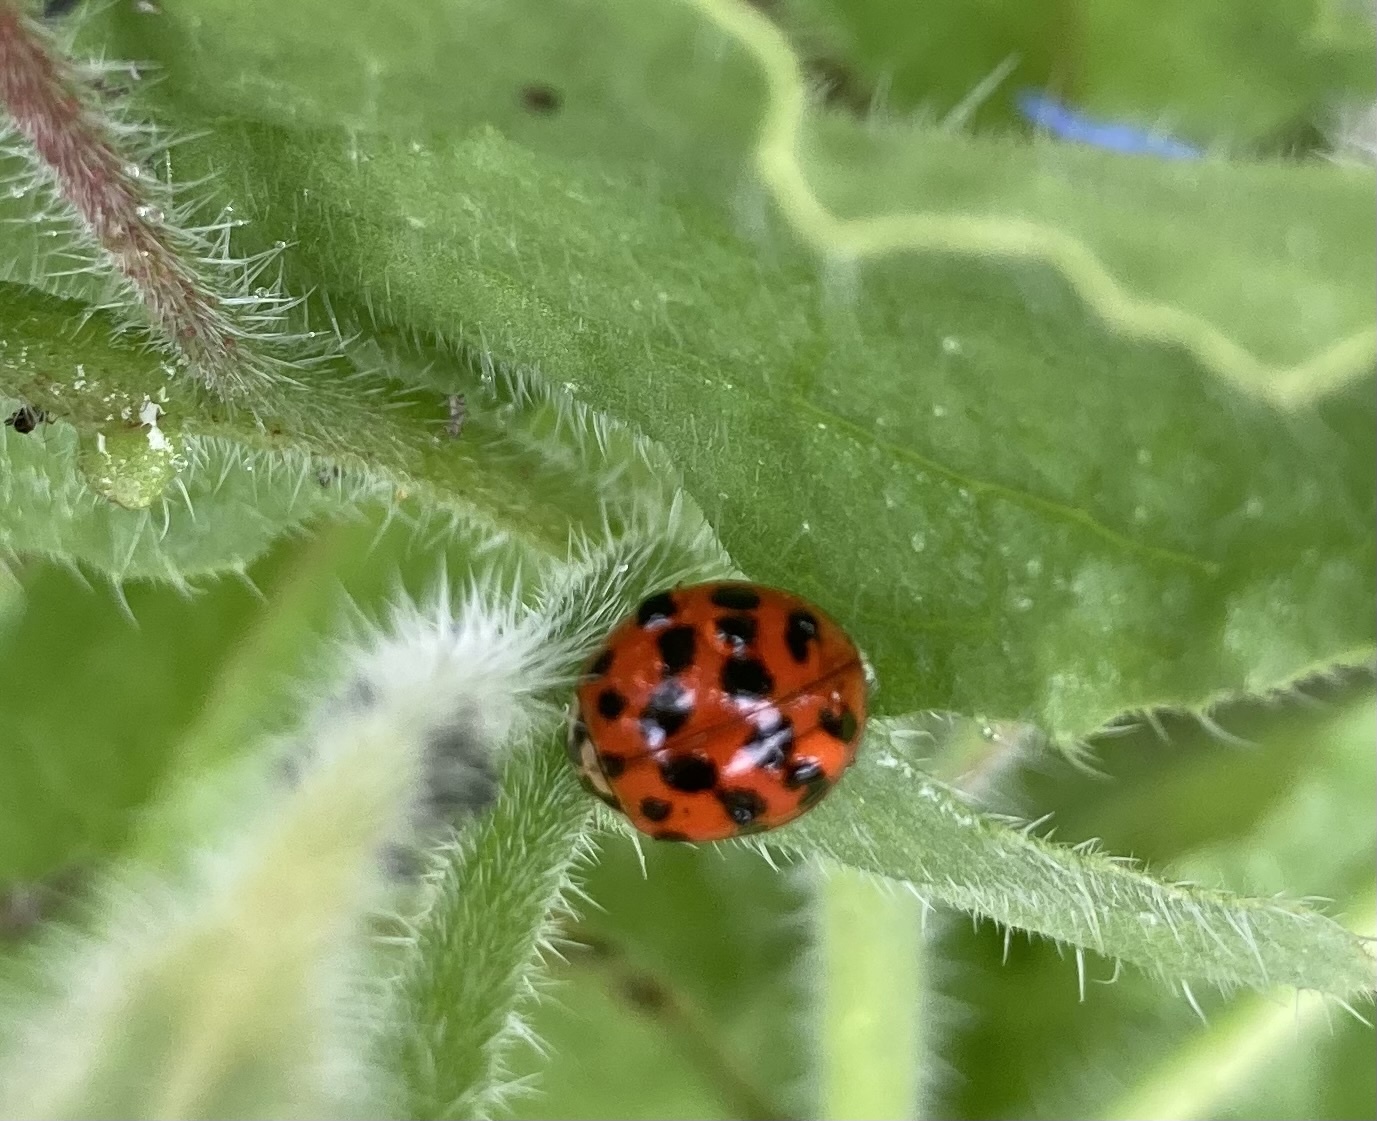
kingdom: Animalia
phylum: Arthropoda
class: Insecta
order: Coleoptera
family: Coccinellidae
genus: Harmonia
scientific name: Harmonia axyridis
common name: Harlequin ladybird
